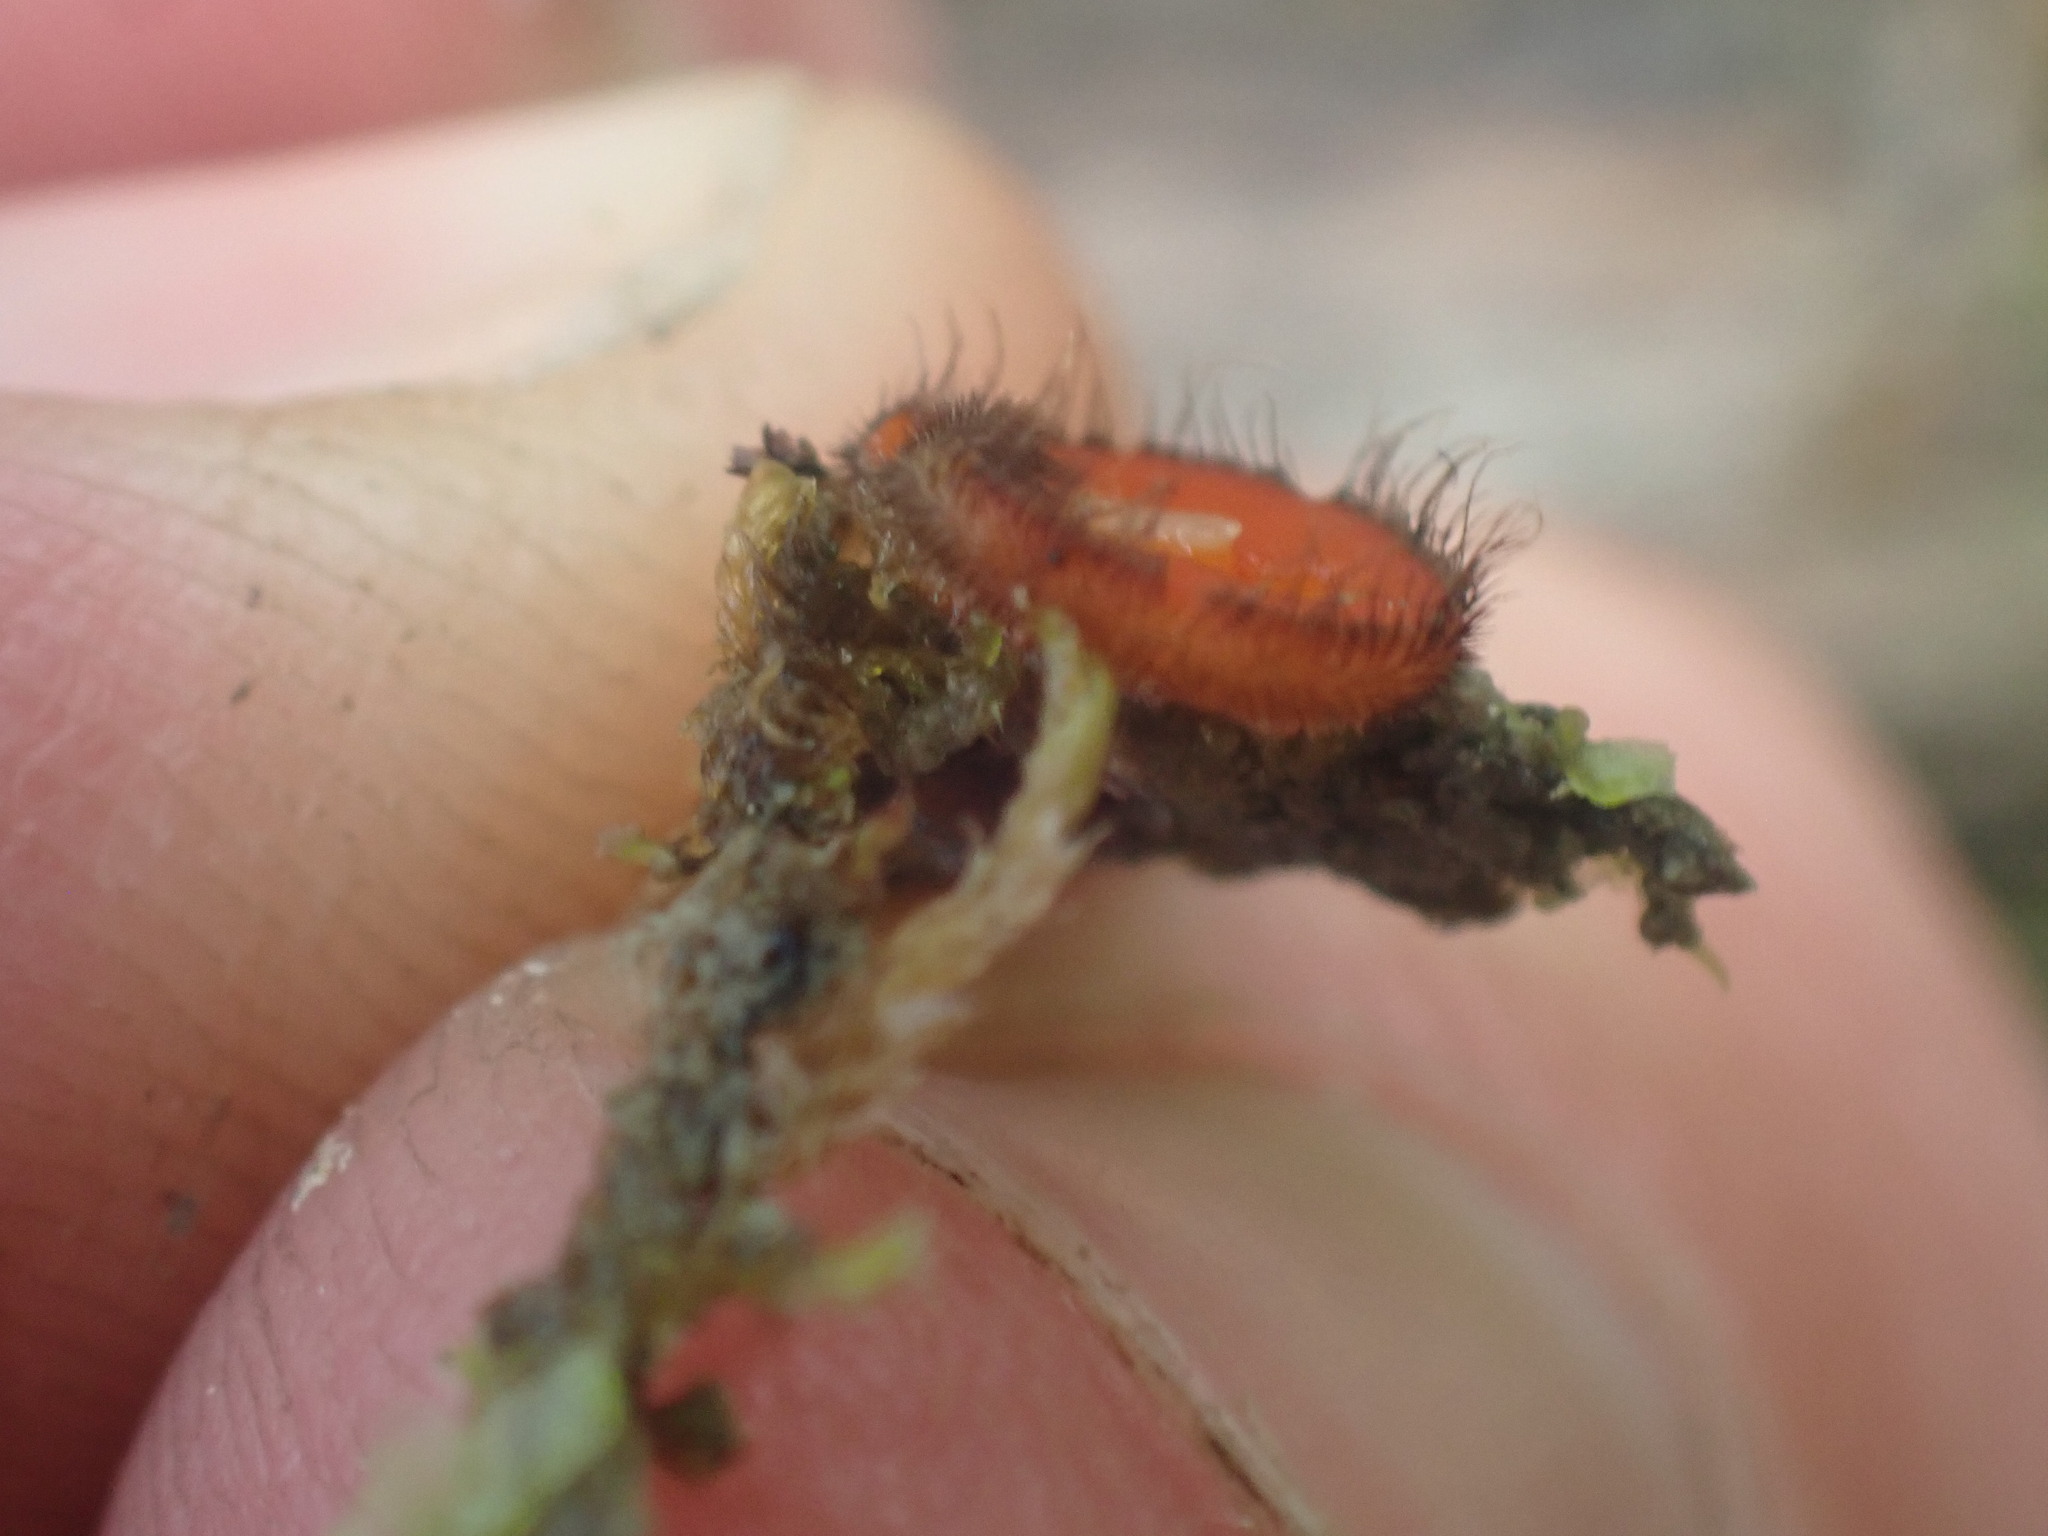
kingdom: Fungi
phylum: Ascomycota
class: Pezizomycetes
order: Pezizales
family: Pyronemataceae
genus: Scutellinia
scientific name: Scutellinia scutellata
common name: Common eyelash
